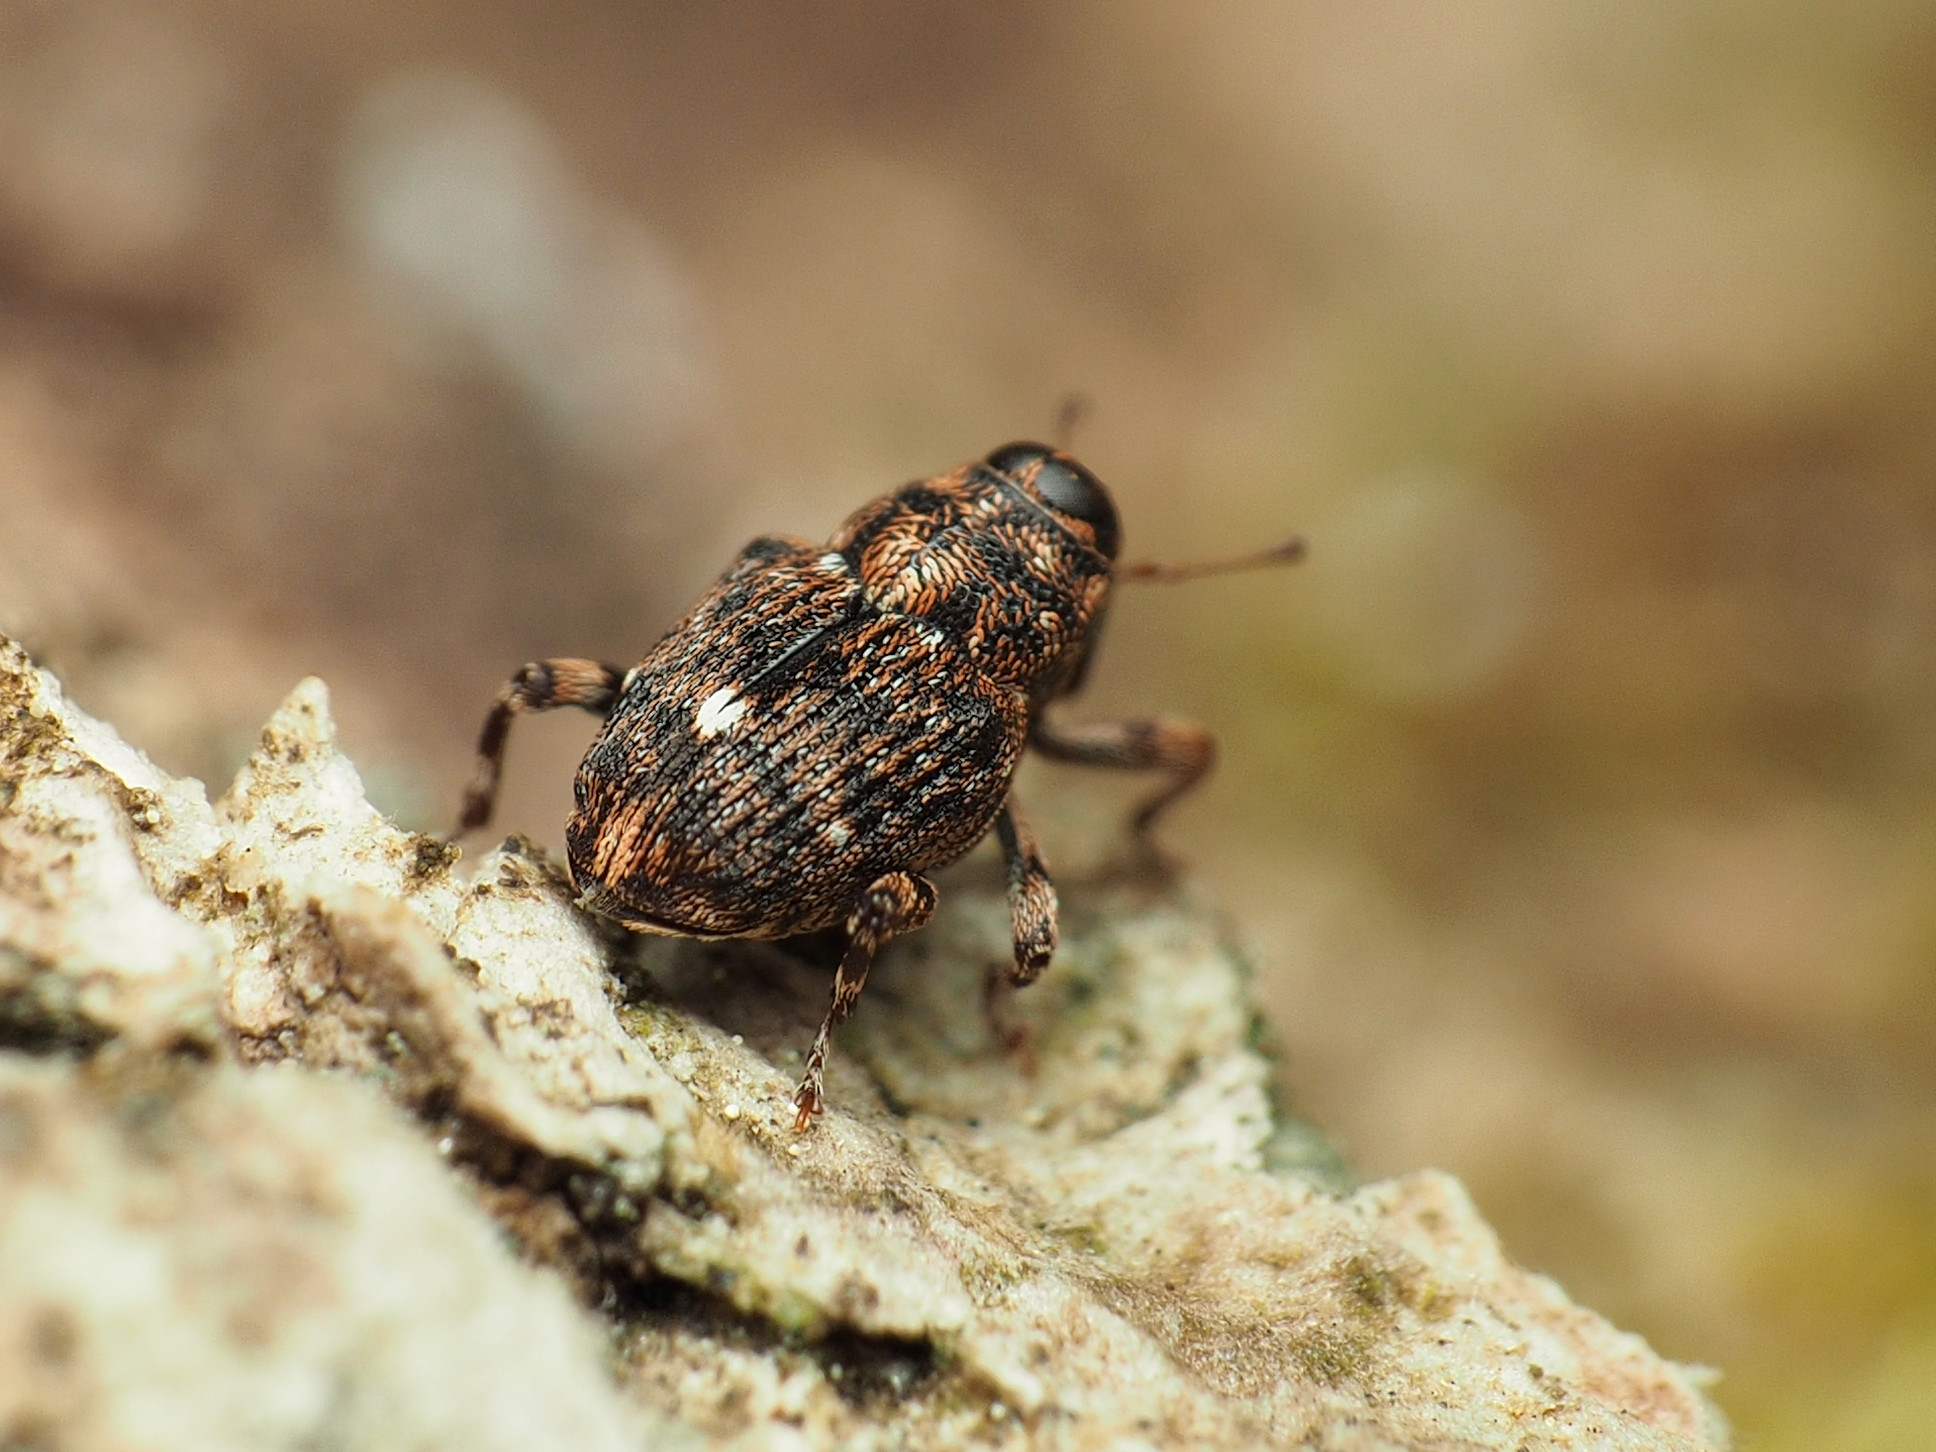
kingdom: Animalia
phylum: Arthropoda
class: Insecta
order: Coleoptera
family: Curculionidae
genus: Lechriops
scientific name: Lechriops oculatus
